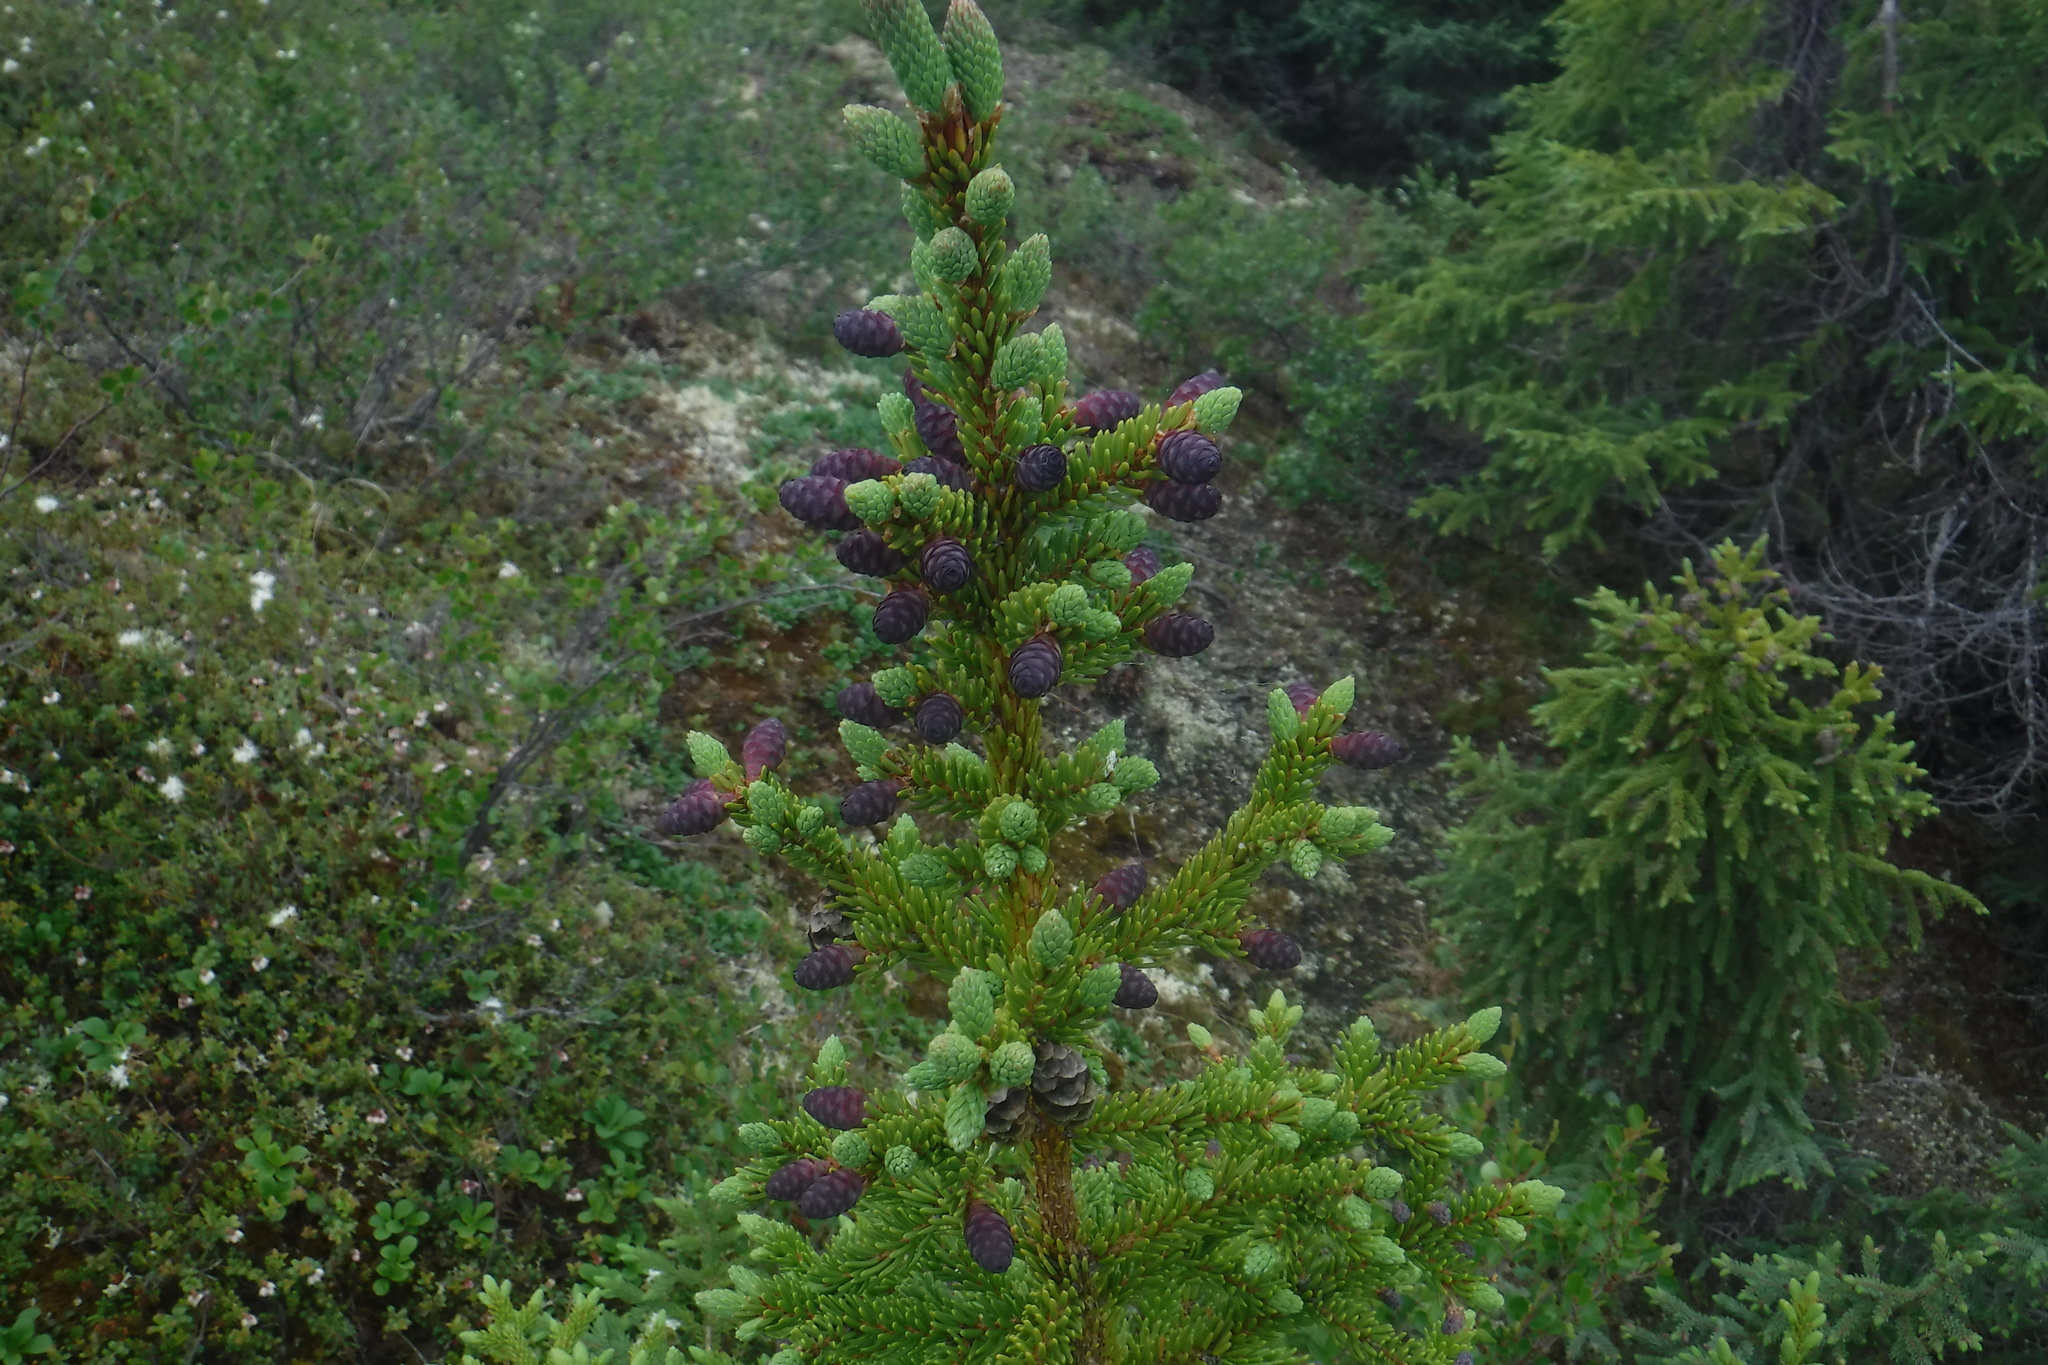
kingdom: Plantae
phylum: Tracheophyta
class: Pinopsida
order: Pinales
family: Pinaceae
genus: Picea
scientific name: Picea glauca
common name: White spruce
